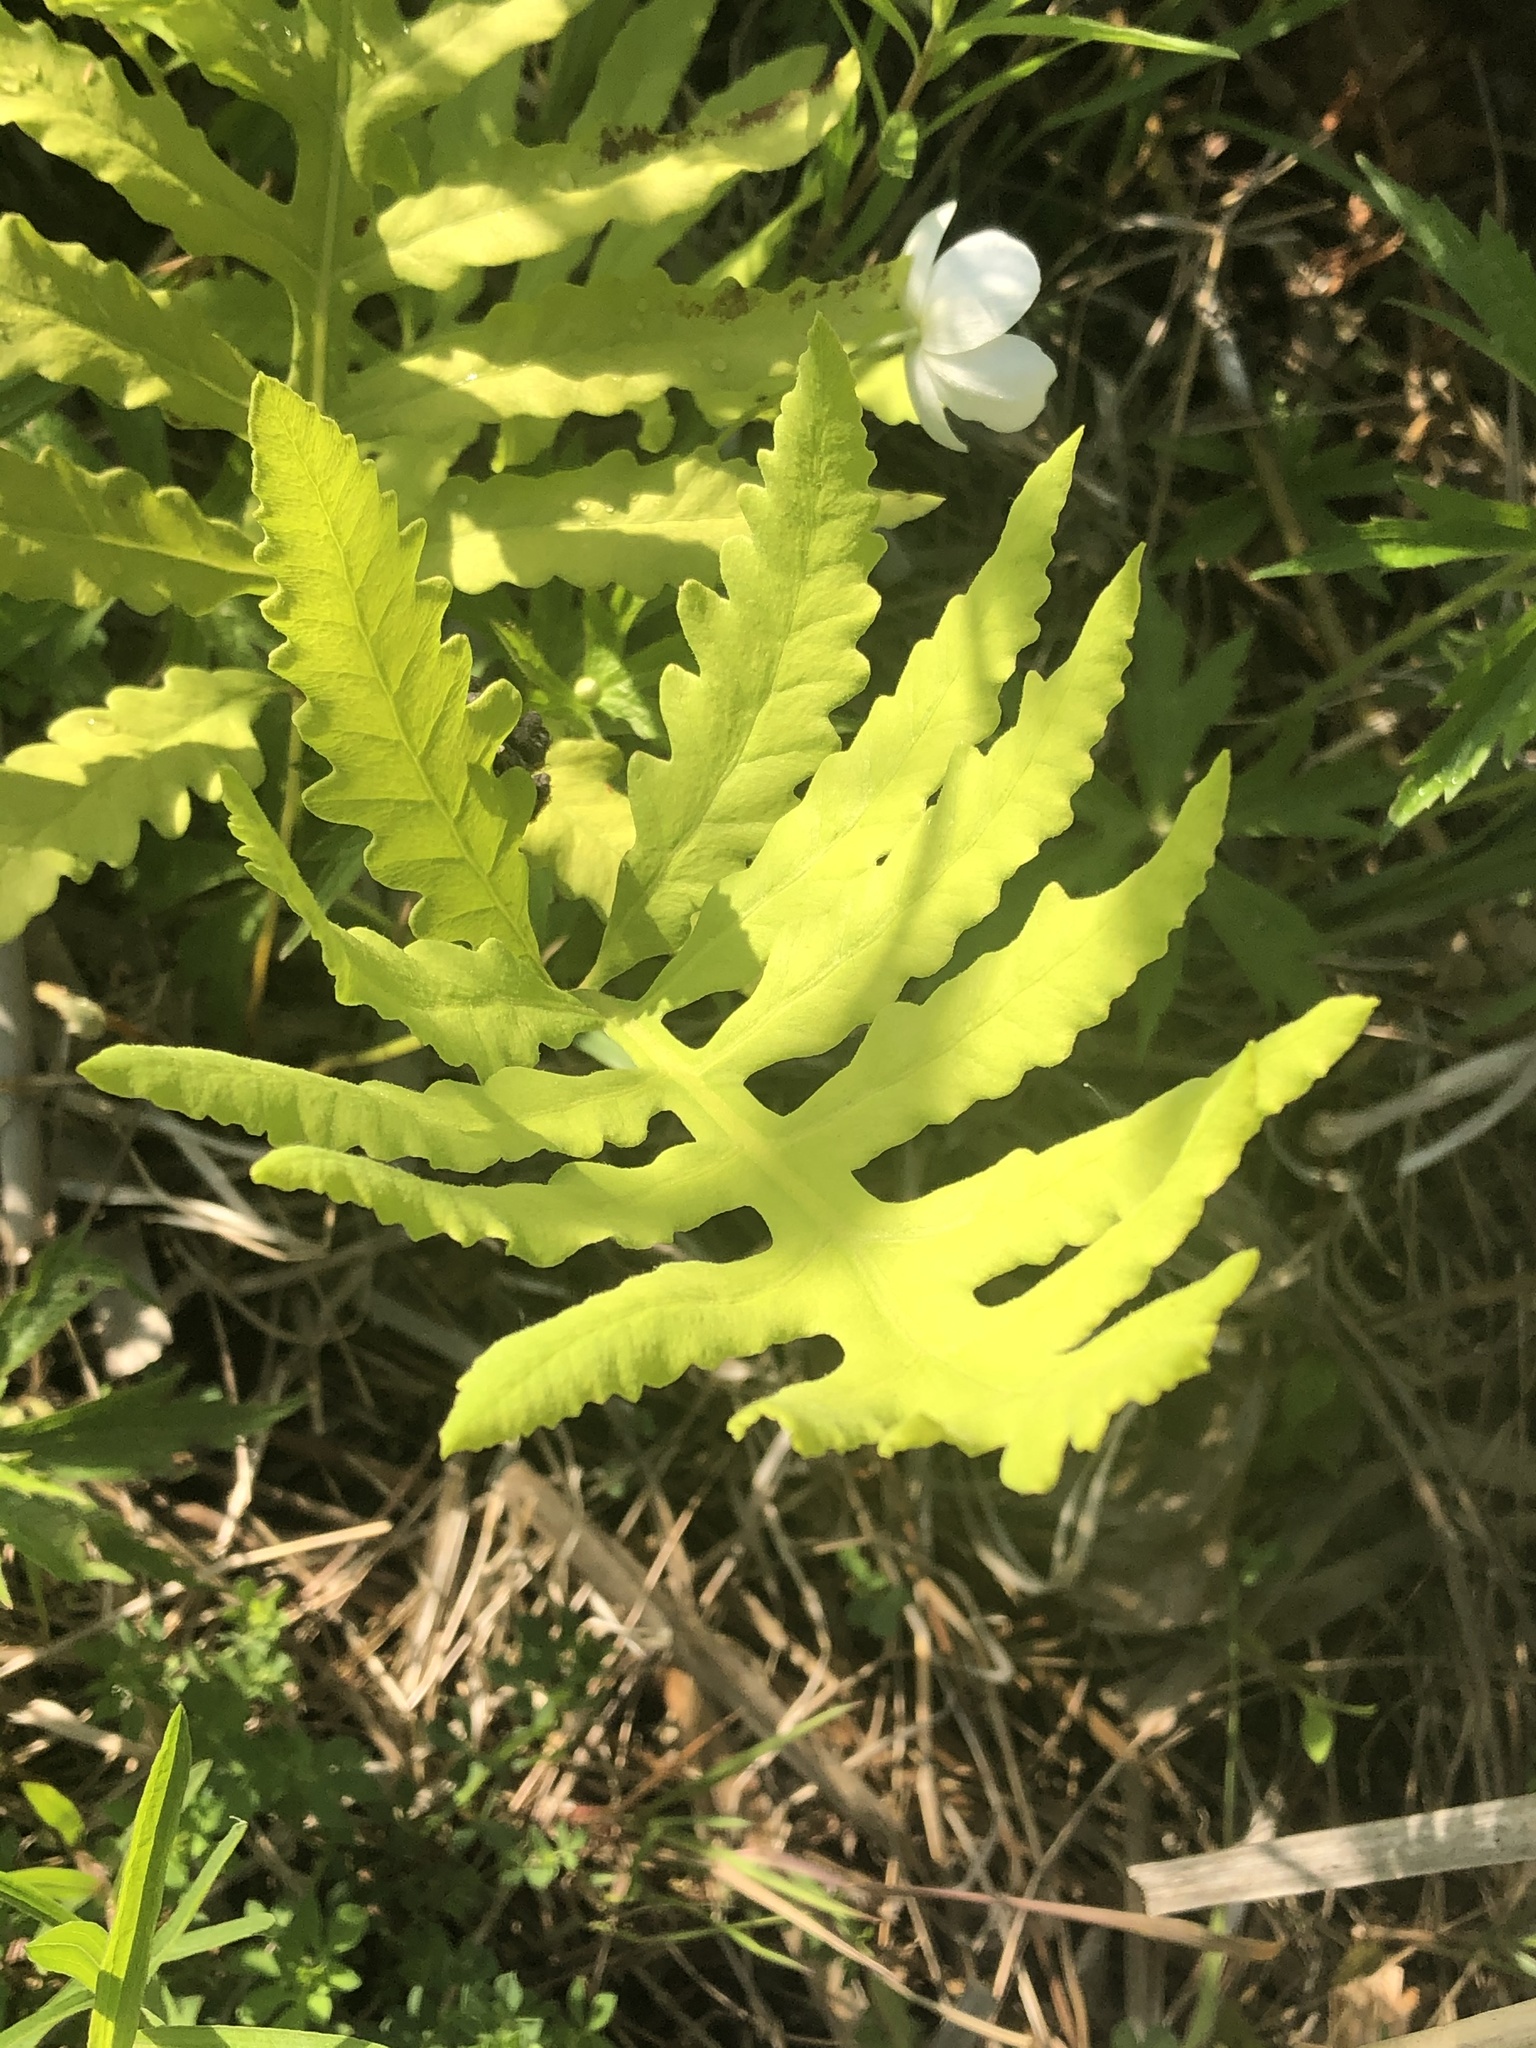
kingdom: Plantae
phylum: Tracheophyta
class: Polypodiopsida
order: Polypodiales
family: Onocleaceae
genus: Onoclea
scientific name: Onoclea sensibilis
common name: Sensitive fern
